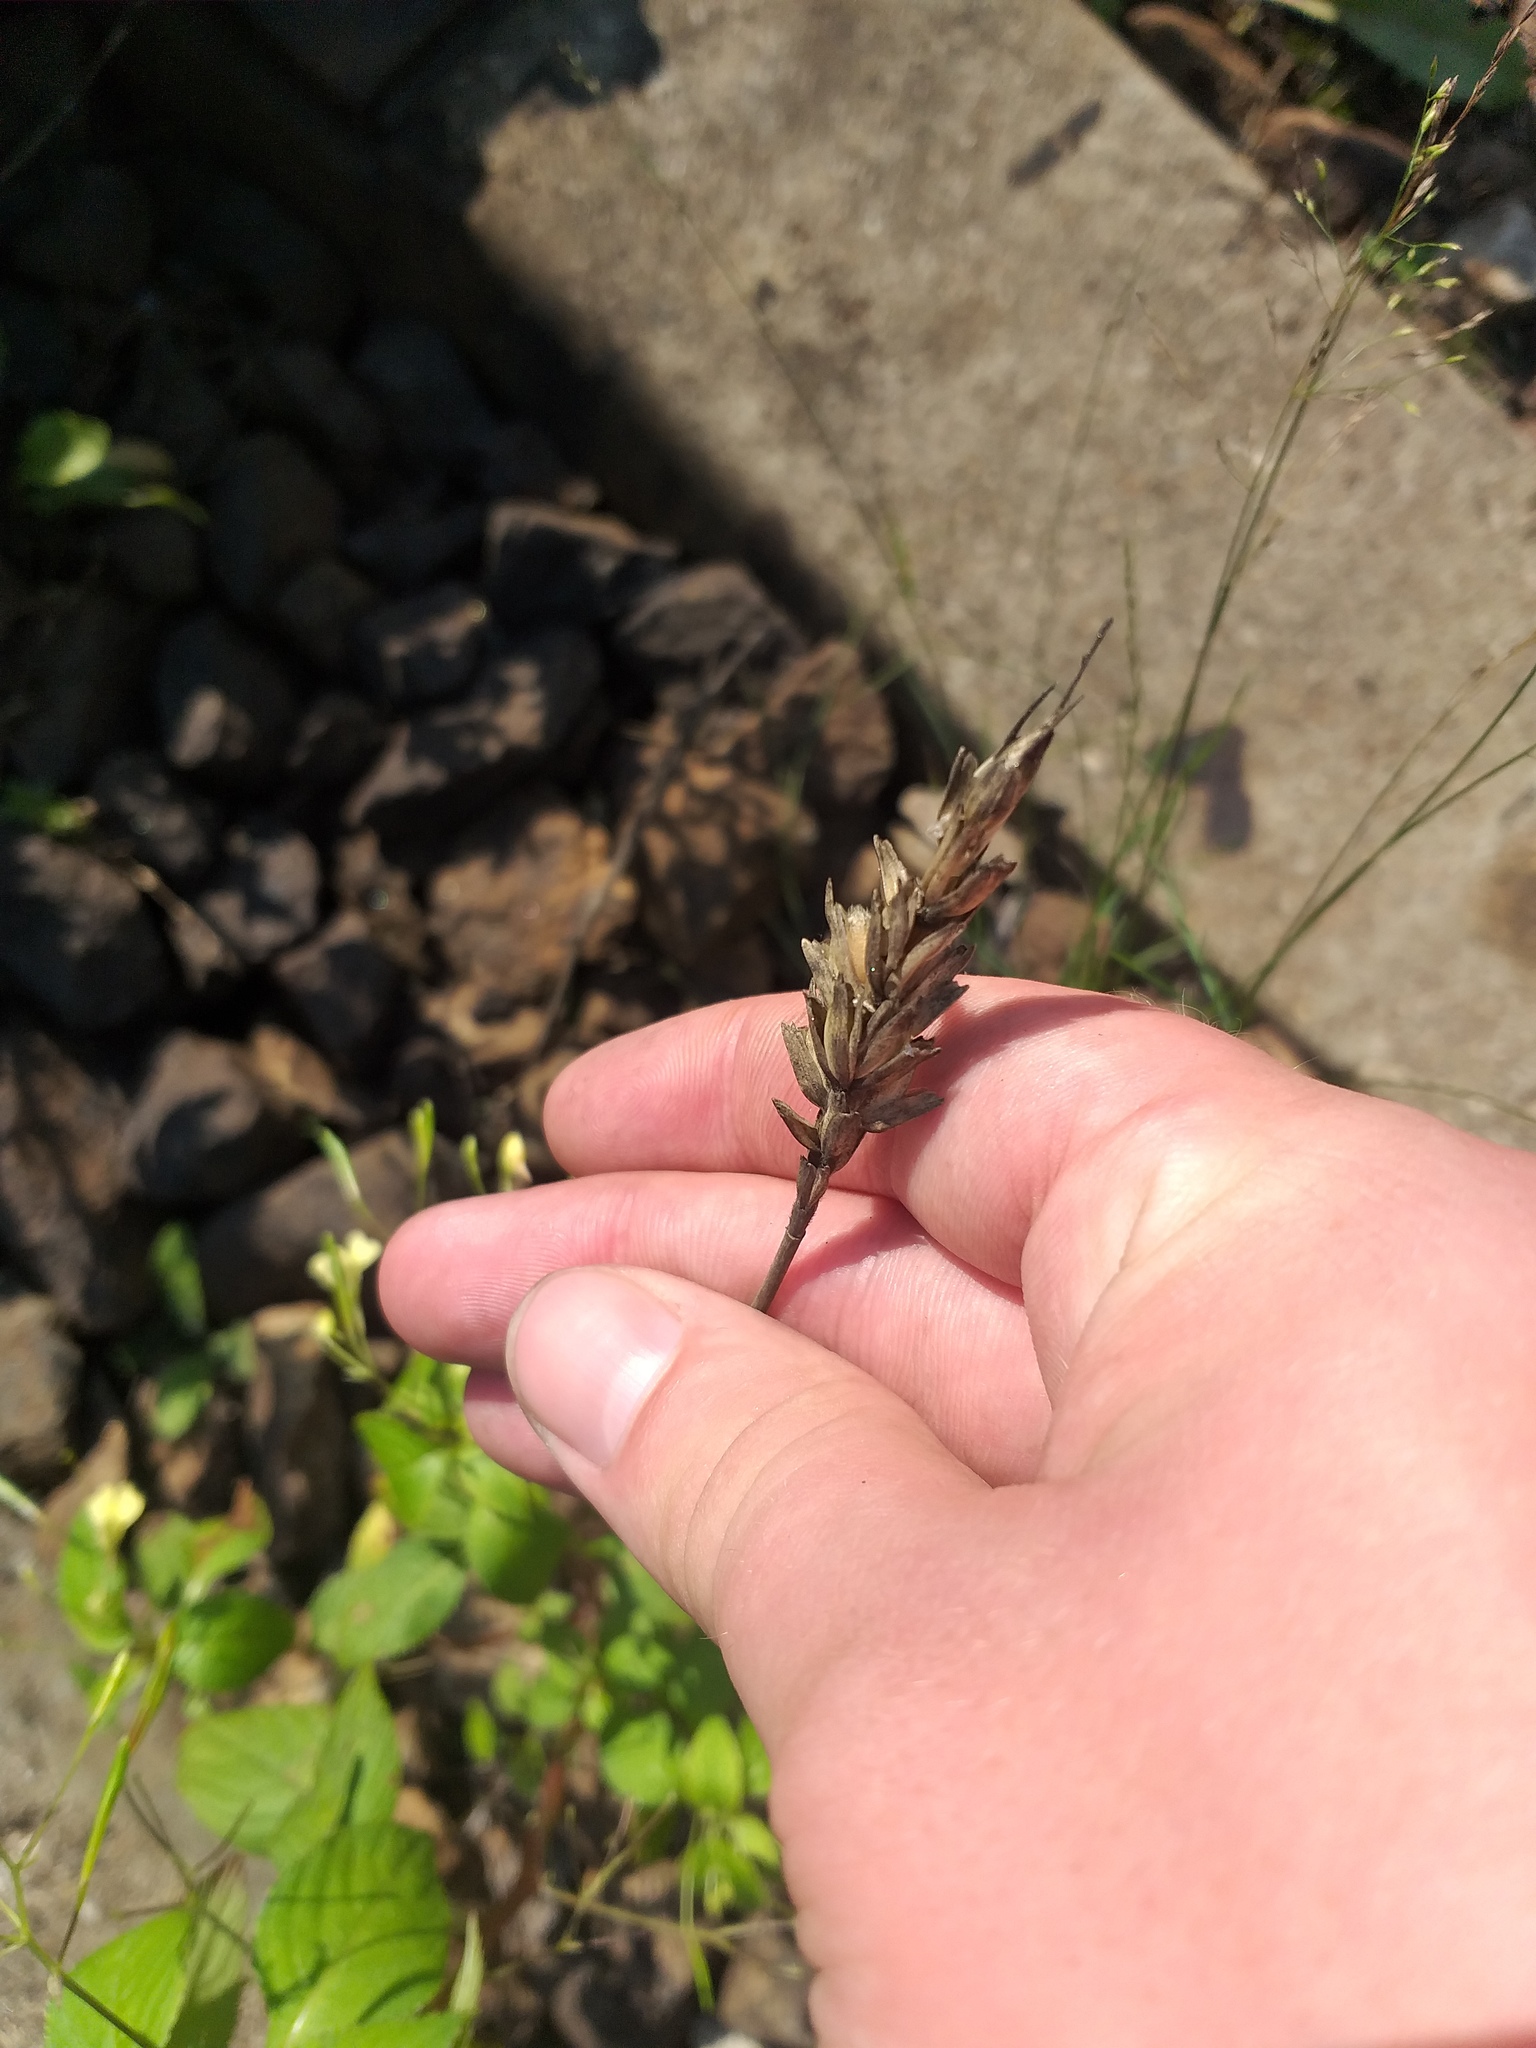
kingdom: Plantae
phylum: Tracheophyta
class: Liliopsida
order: Poales
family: Poaceae
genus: Triticum
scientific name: Triticum aestivum
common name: Common wheat
